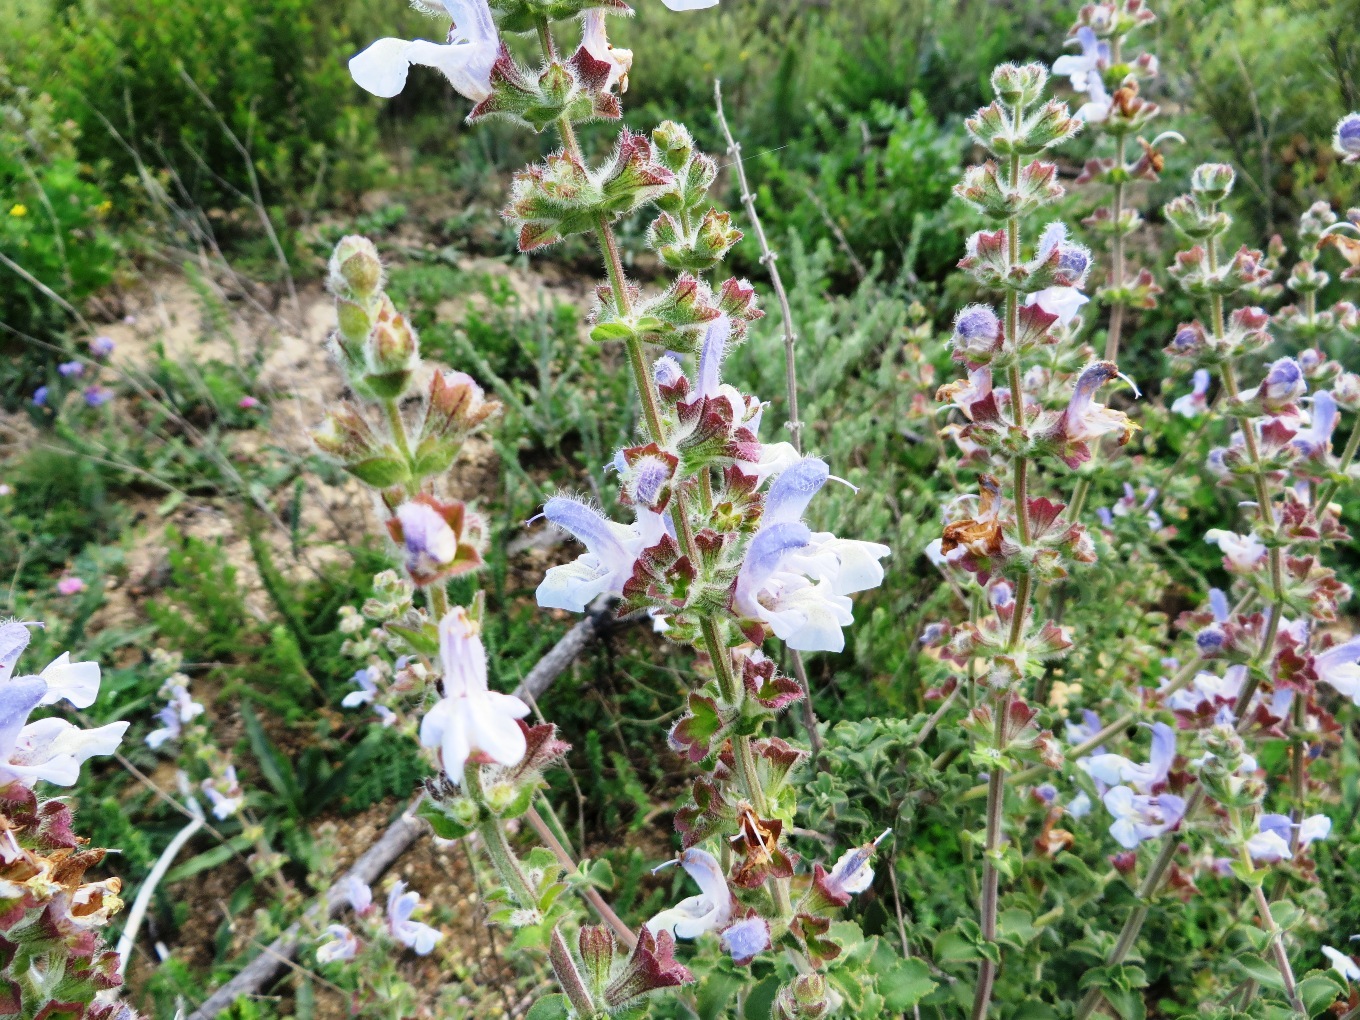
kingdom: Plantae
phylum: Tracheophyta
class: Magnoliopsida
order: Lamiales
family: Lamiaceae
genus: Salvia
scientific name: Salvia chamelaeagnea
